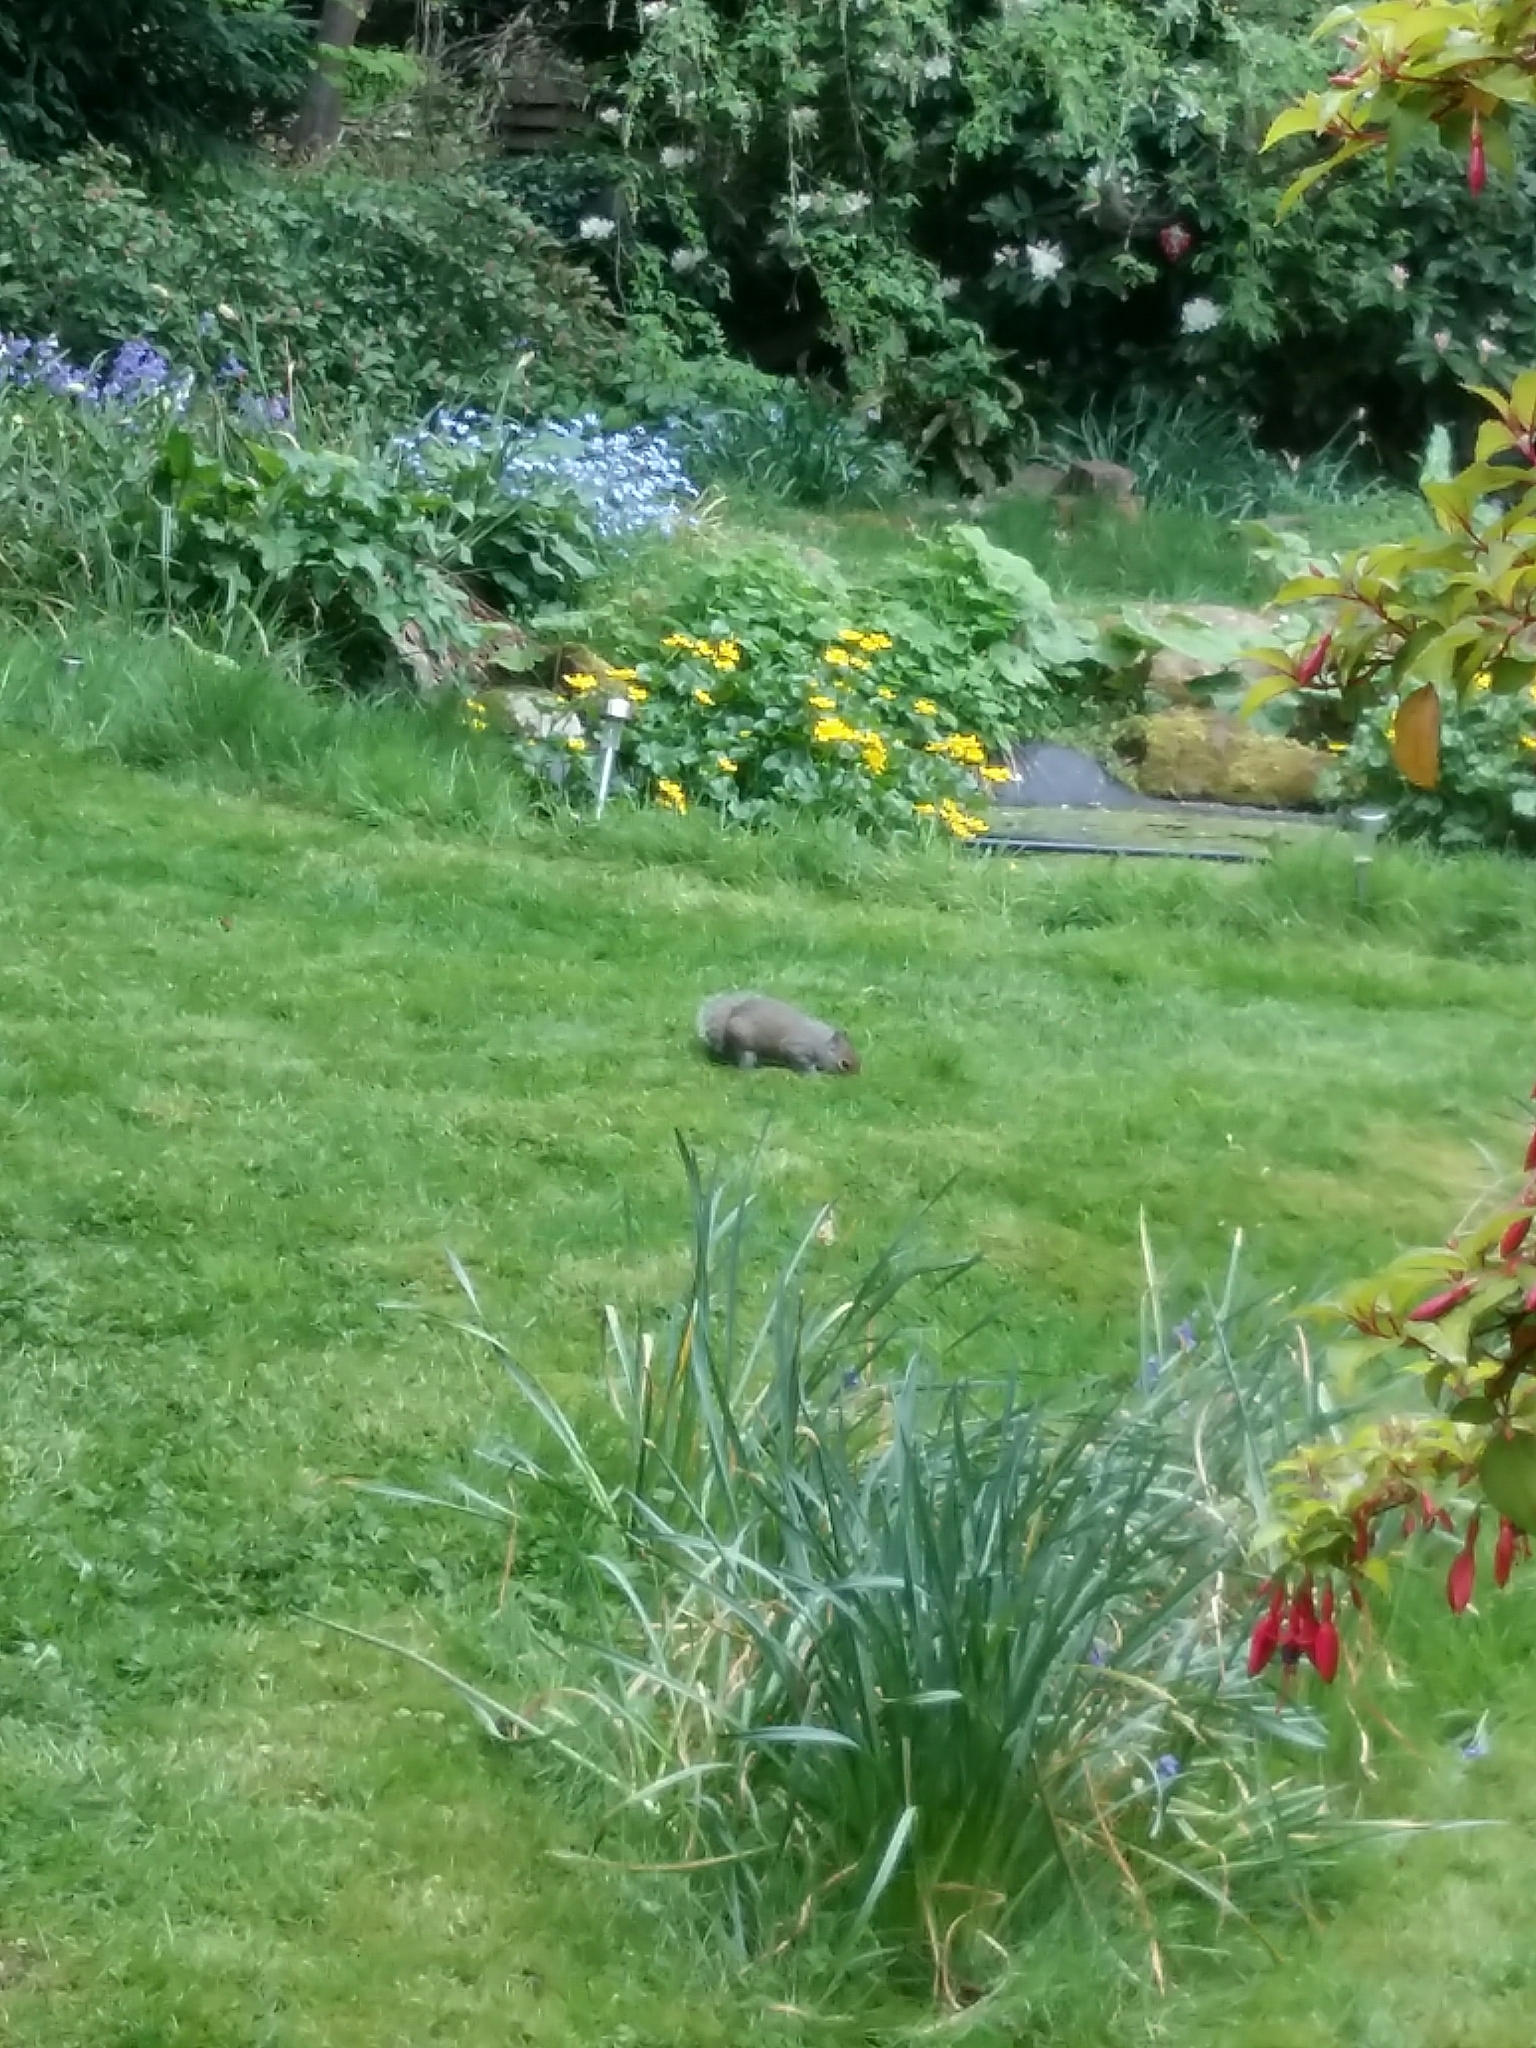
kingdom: Animalia
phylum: Chordata
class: Mammalia
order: Rodentia
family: Sciuridae
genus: Sciurus
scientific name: Sciurus carolinensis
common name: Eastern gray squirrel
